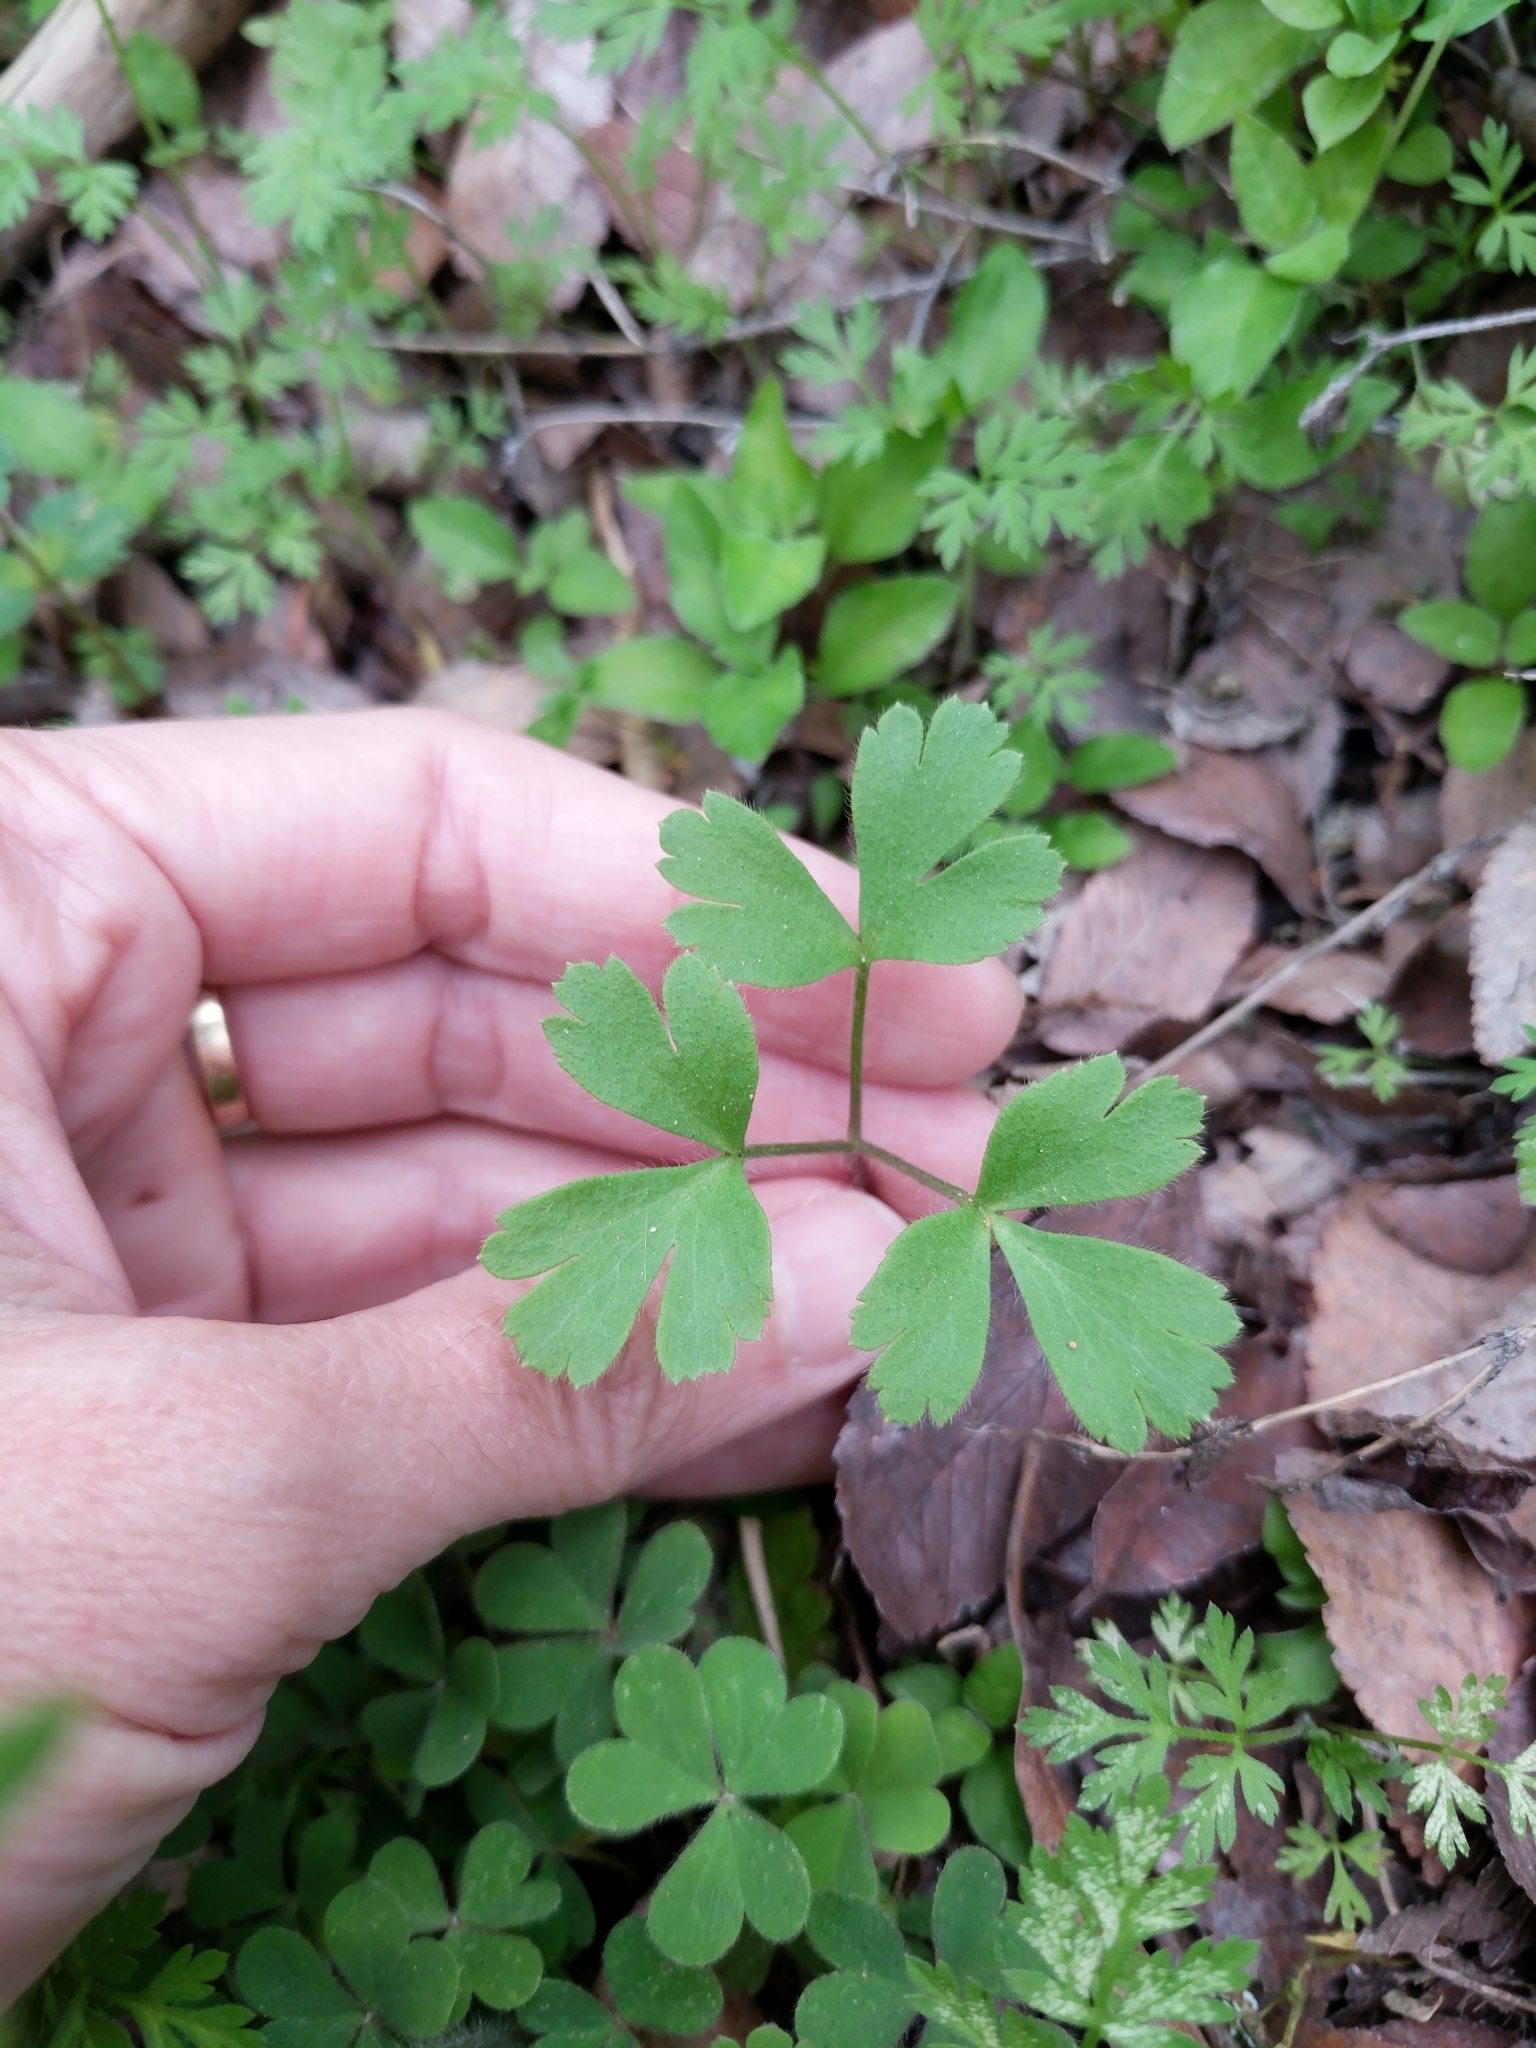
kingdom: Plantae
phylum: Tracheophyta
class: Magnoliopsida
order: Ranunculales
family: Ranunculaceae
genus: Anemone
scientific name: Anemone berlandieri
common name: Ten-petal anemone
